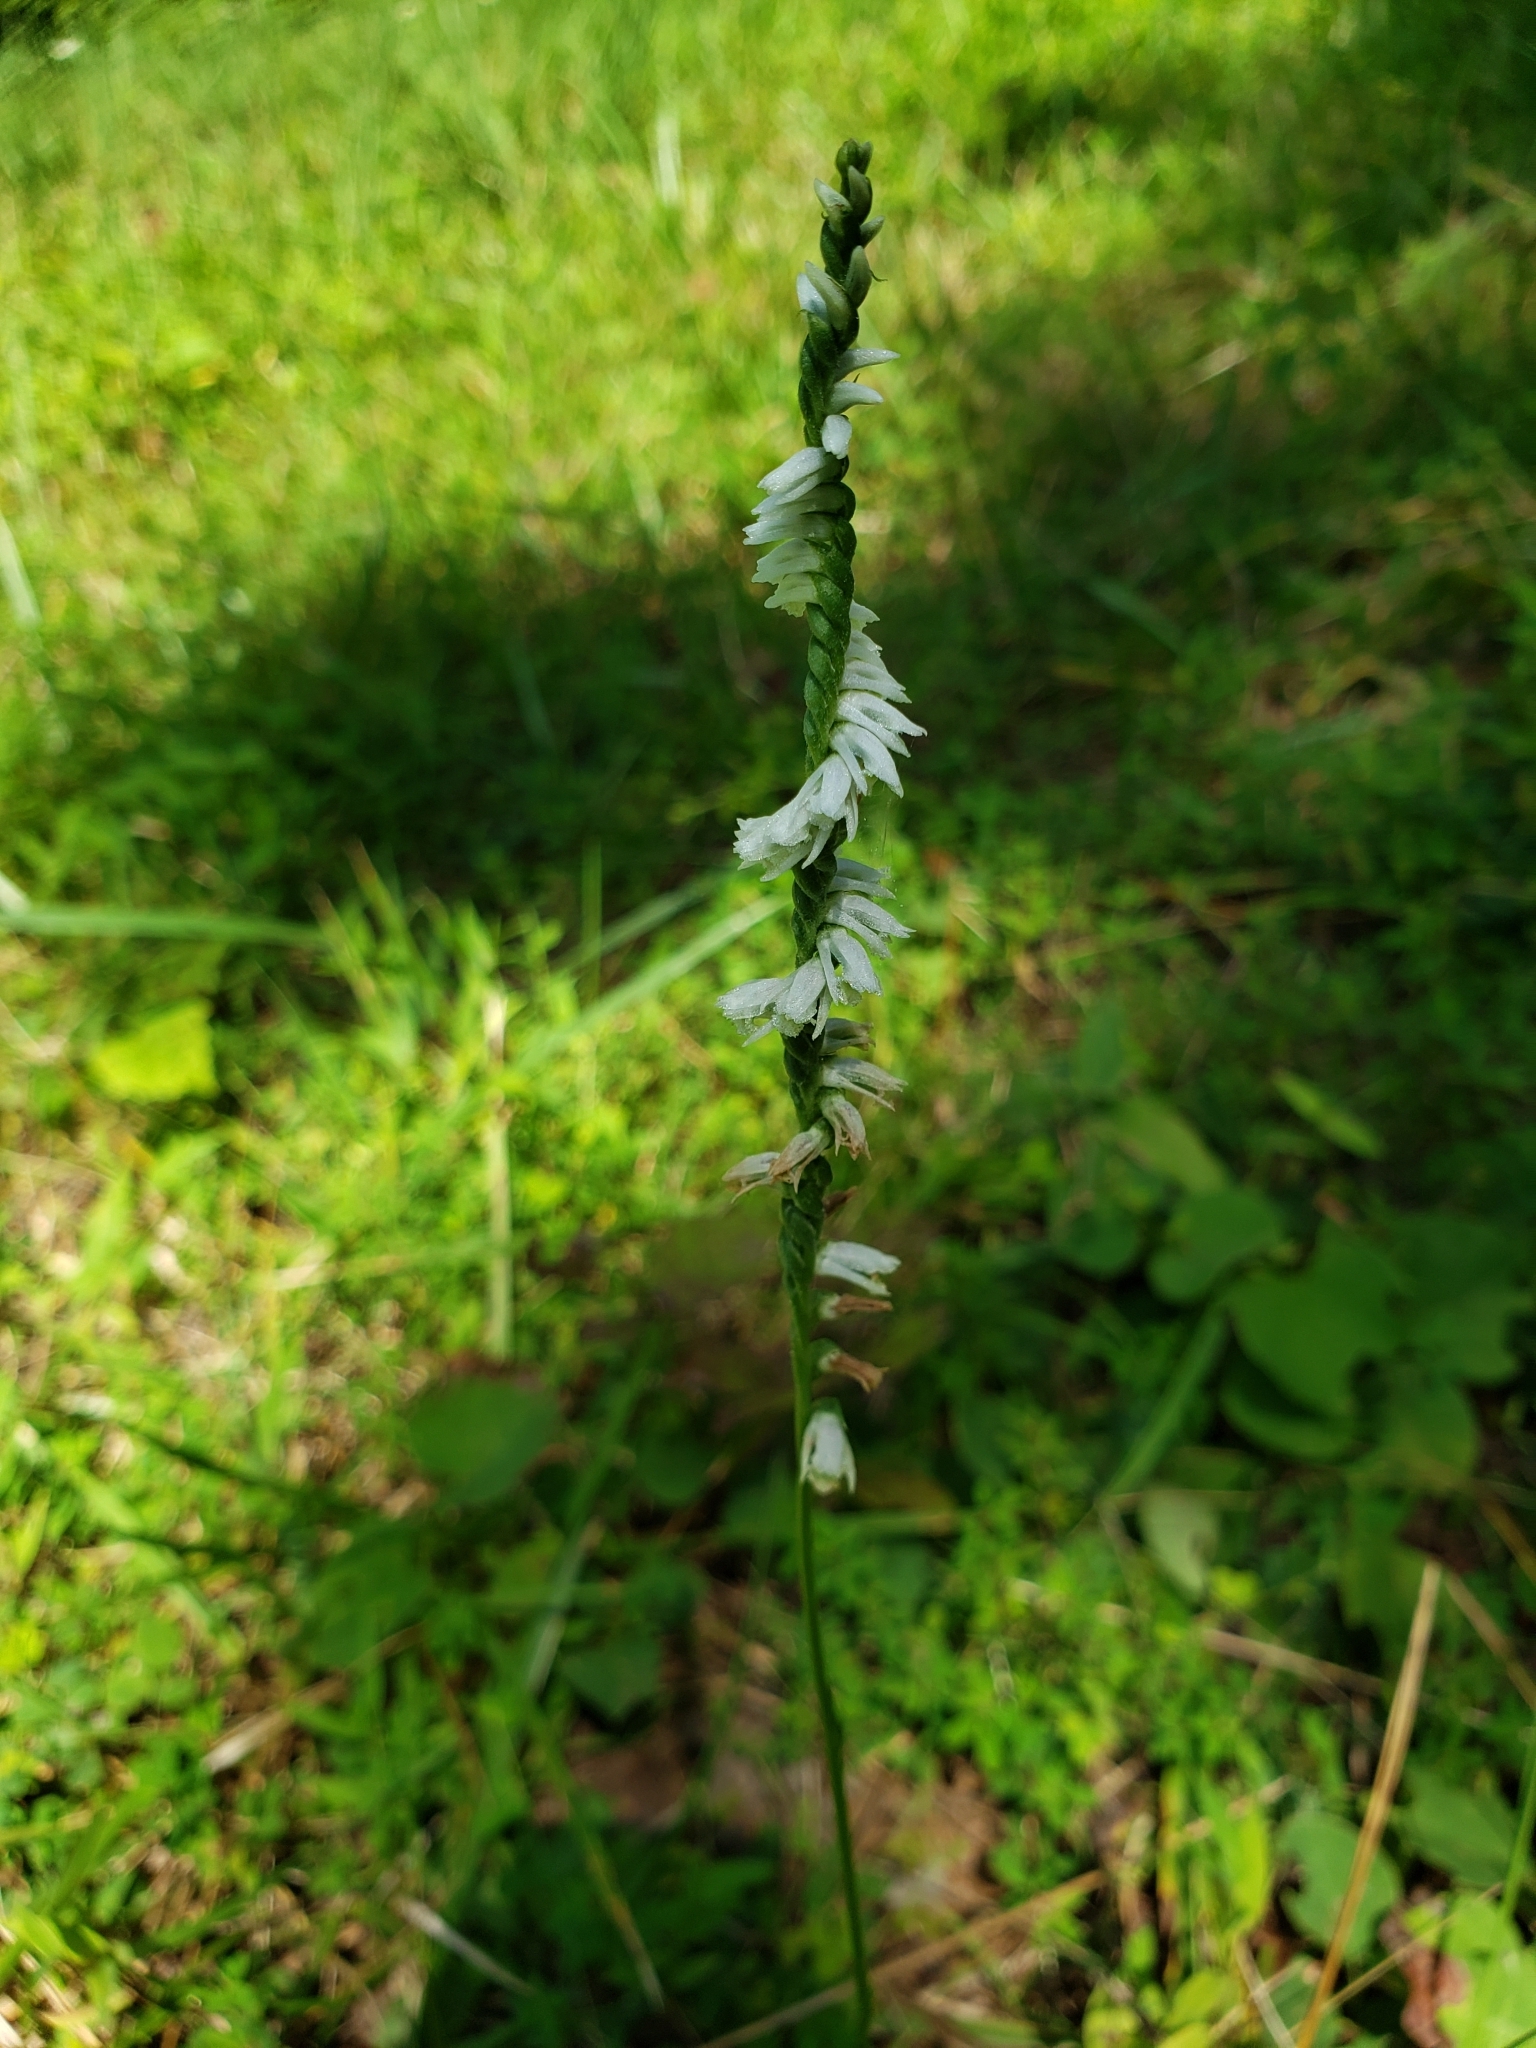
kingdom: Plantae
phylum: Tracheophyta
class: Liliopsida
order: Asparagales
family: Orchidaceae
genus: Spiranthes
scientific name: Spiranthes lacera
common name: Northern slender ladies'-tresses
